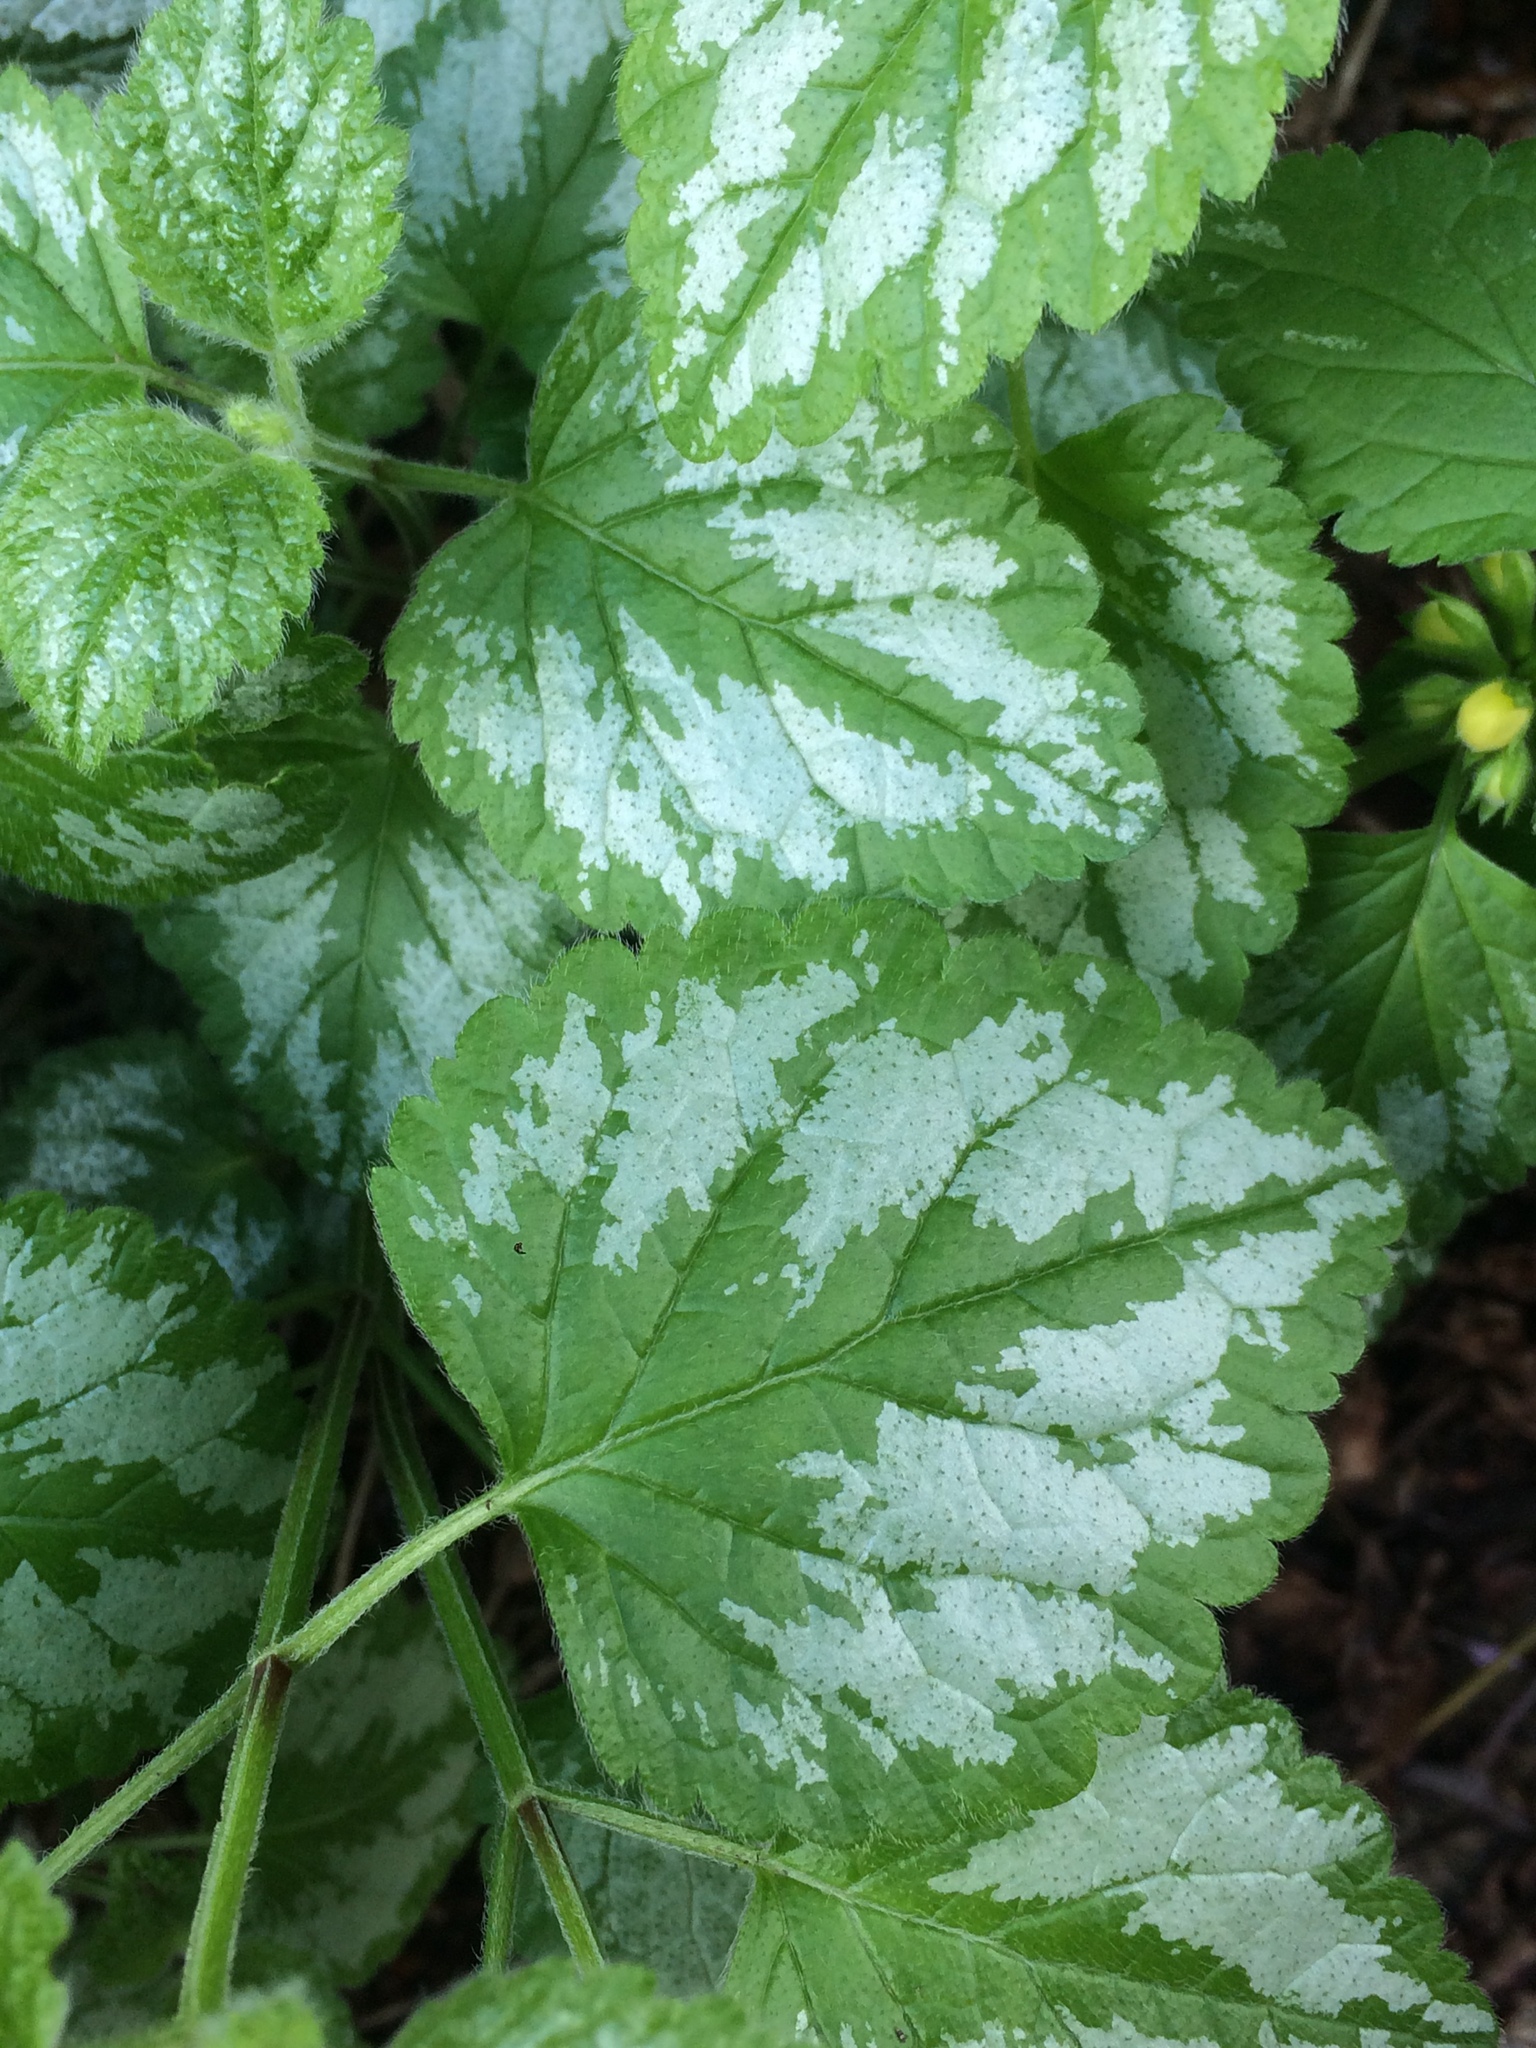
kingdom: Plantae
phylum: Tracheophyta
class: Magnoliopsida
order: Lamiales
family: Lamiaceae
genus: Lamium
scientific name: Lamium galeobdolon
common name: Yellow archangel
